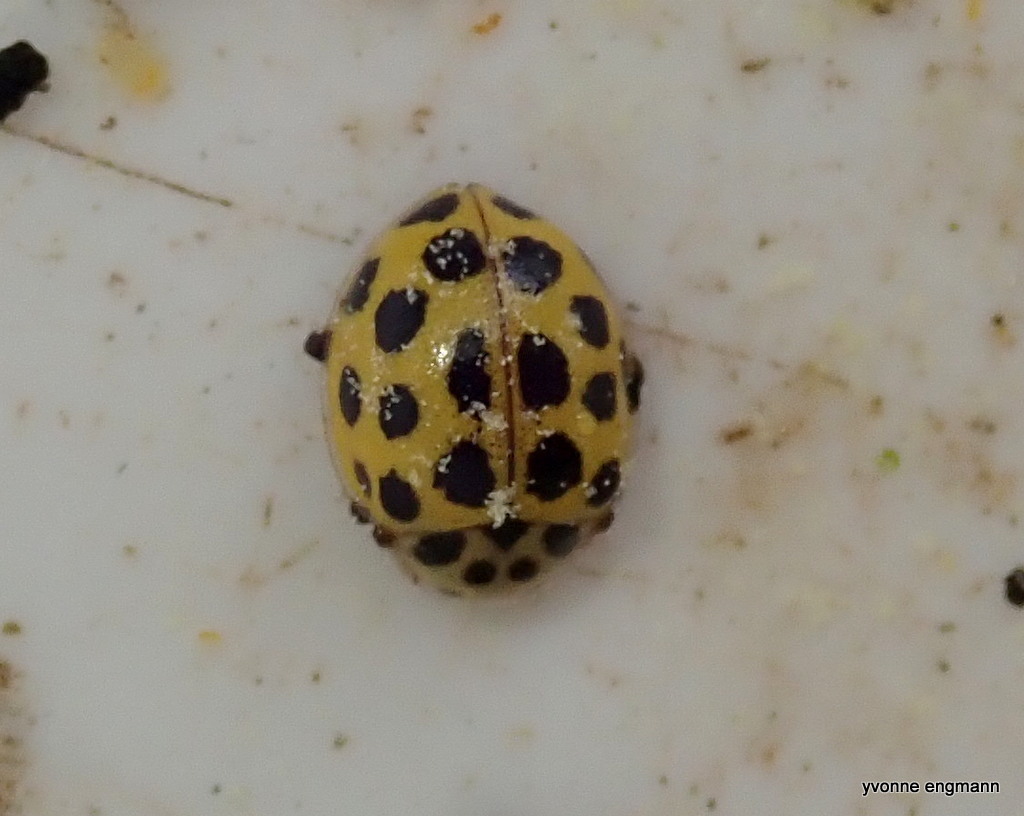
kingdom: Animalia
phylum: Arthropoda
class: Insecta
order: Coleoptera
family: Coccinellidae
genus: Psyllobora
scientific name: Psyllobora vigintiduopunctata
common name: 22-spot ladybird
